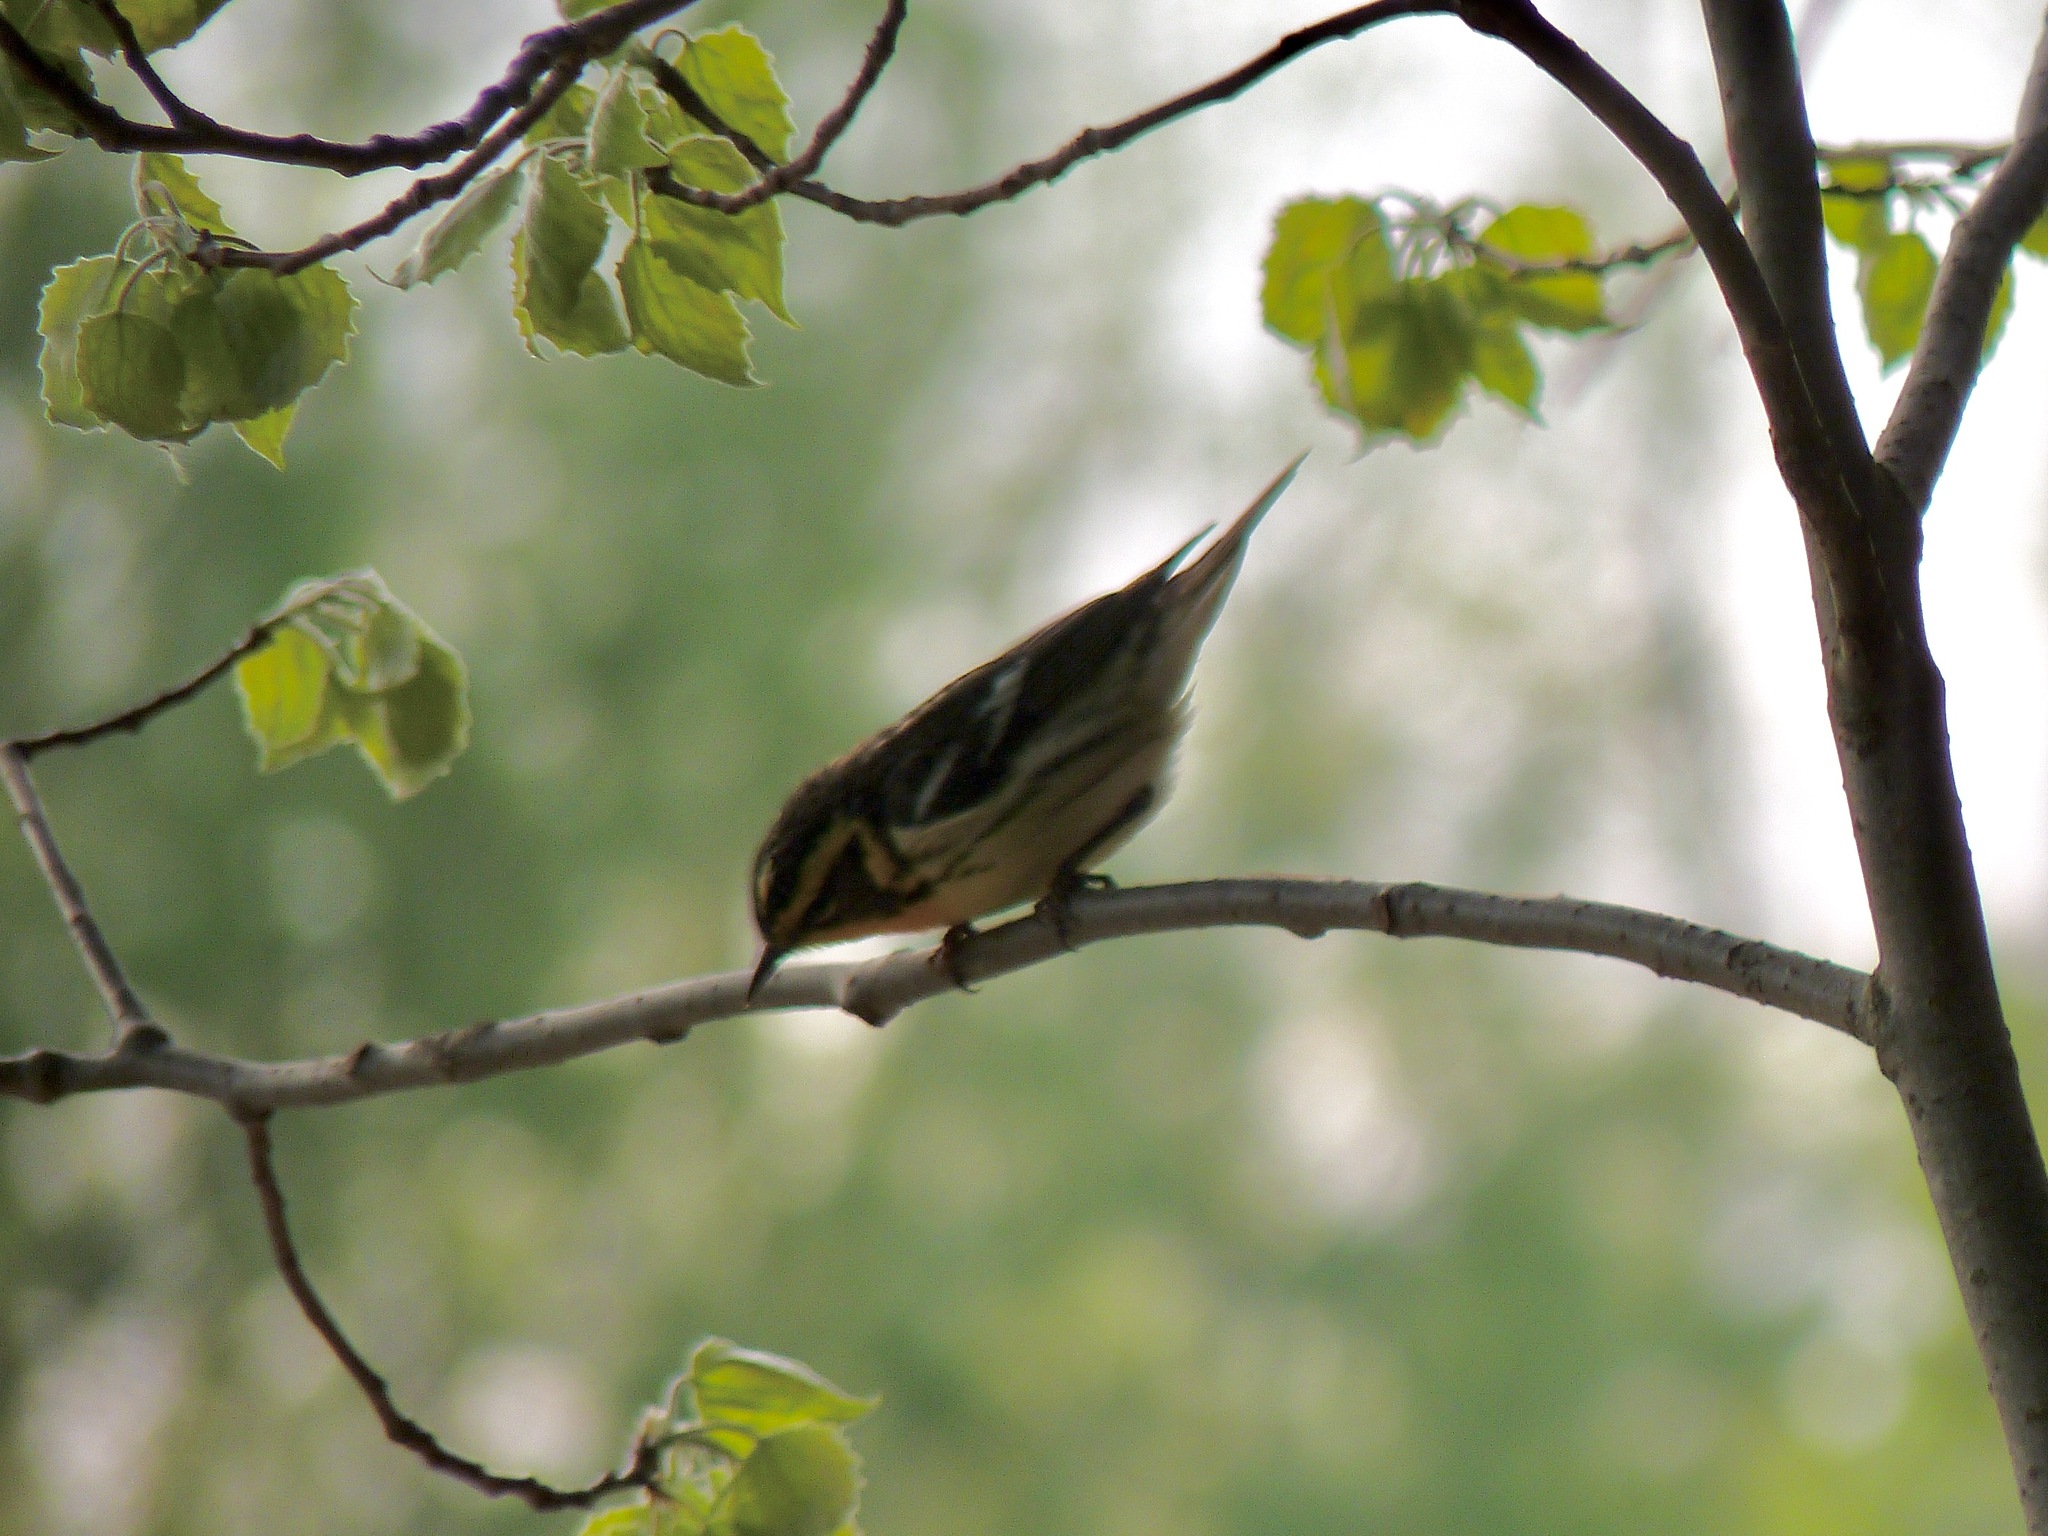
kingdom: Animalia
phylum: Chordata
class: Aves
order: Passeriformes
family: Parulidae
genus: Setophaga
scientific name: Setophaga fusca
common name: Blackburnian warbler
